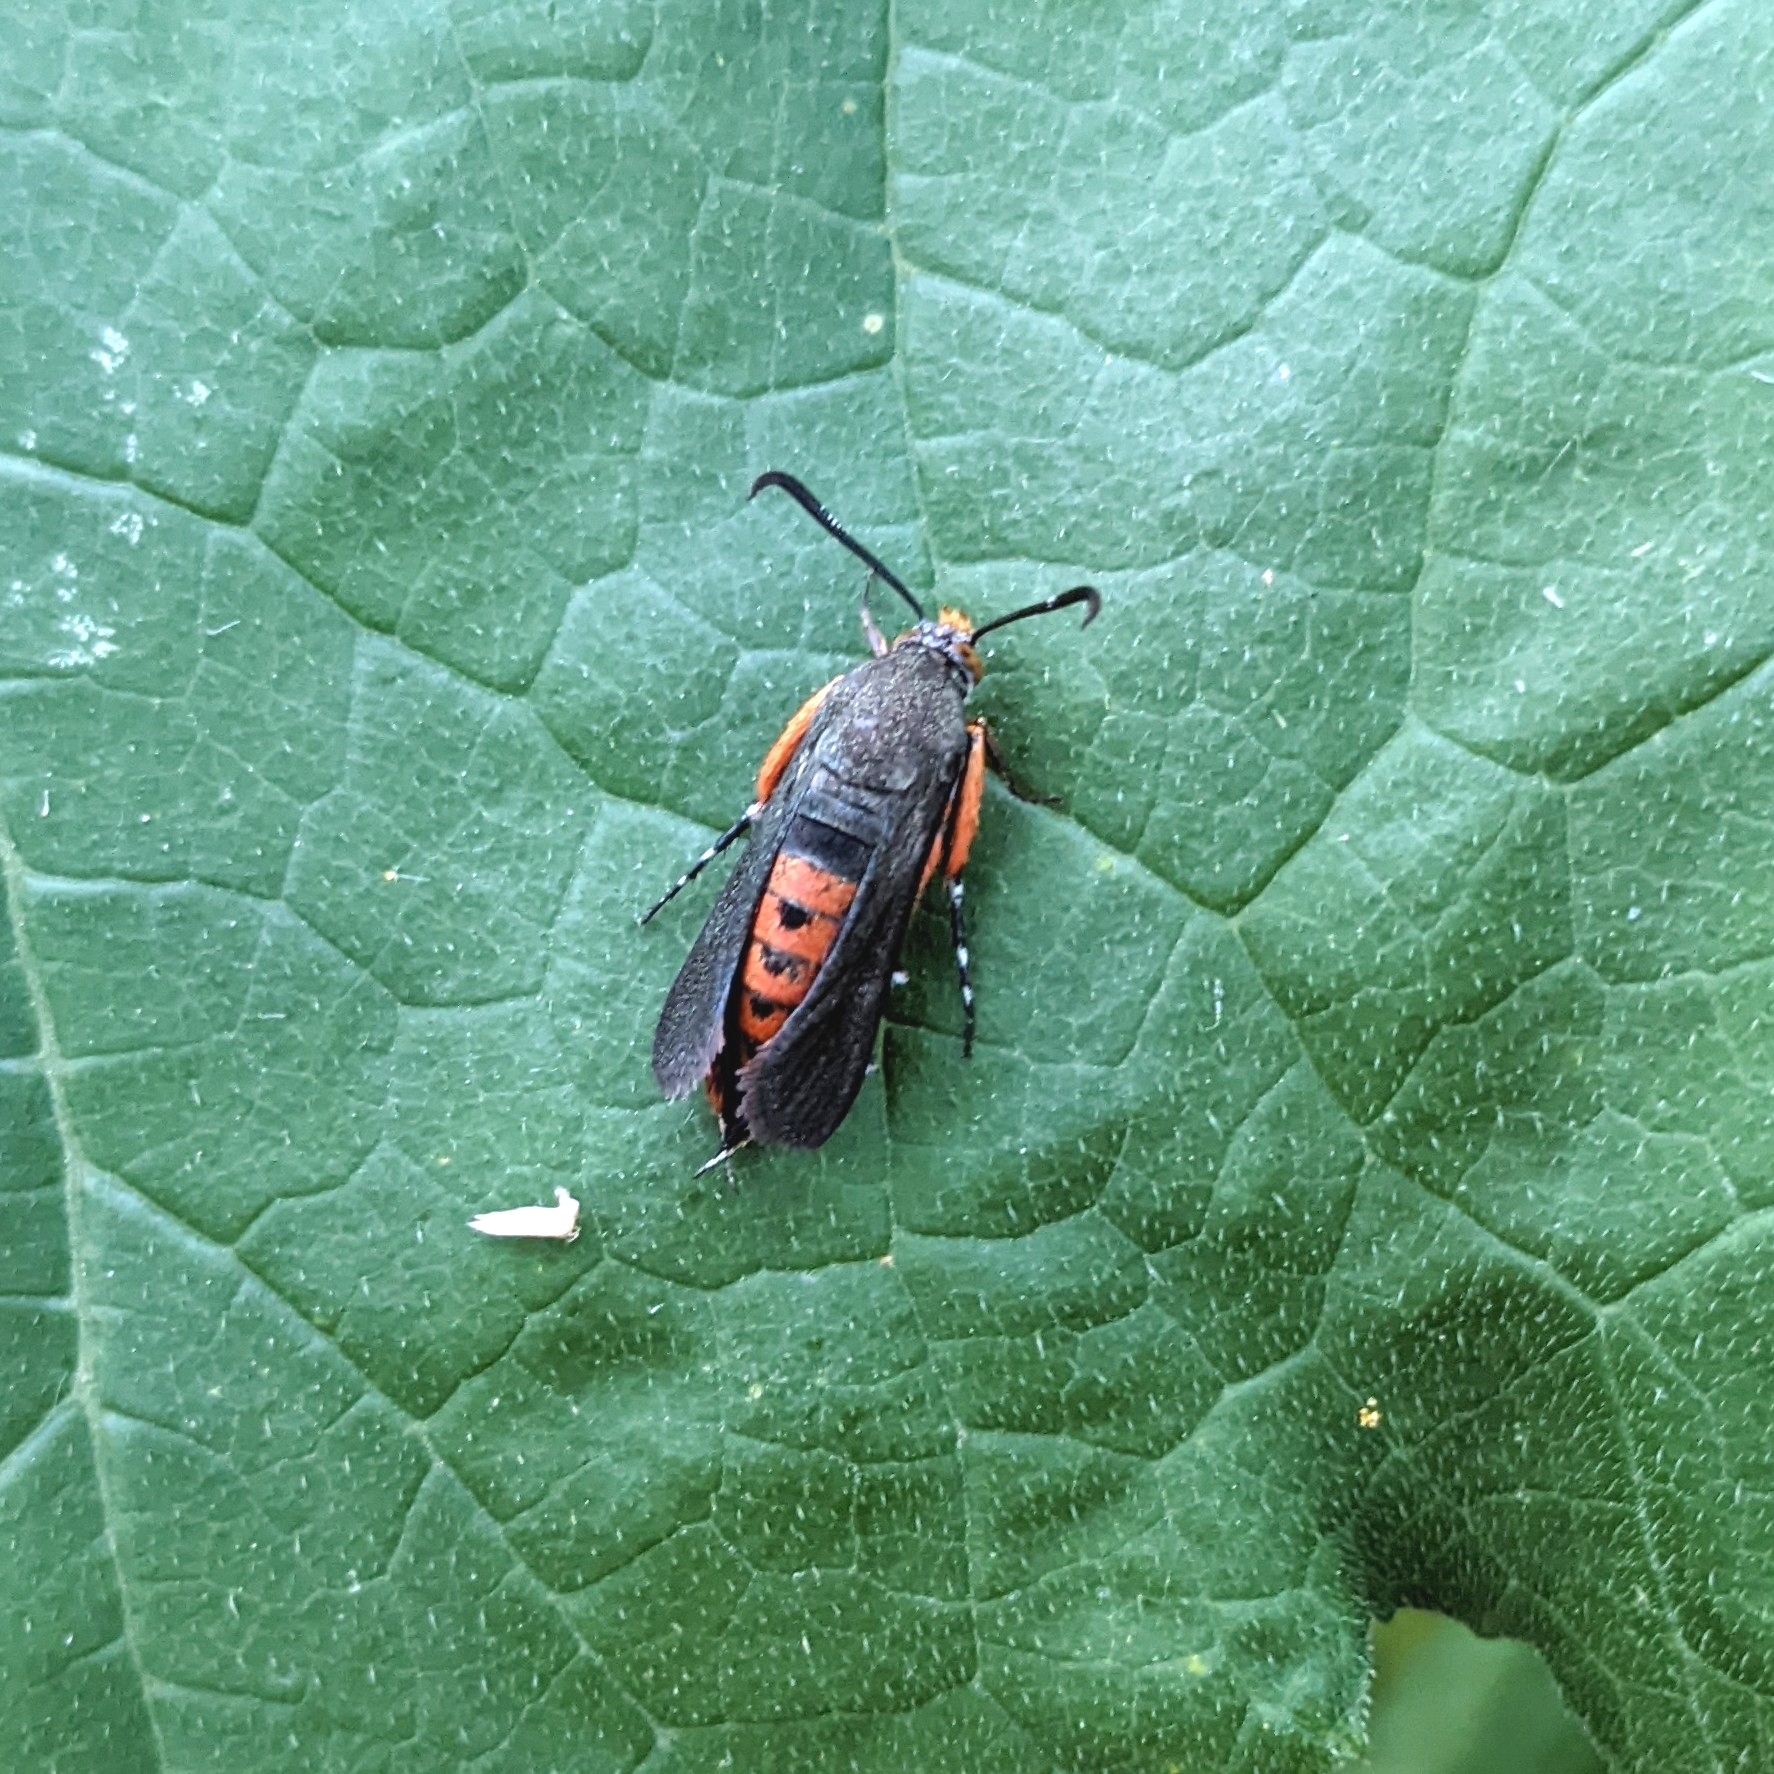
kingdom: Animalia
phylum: Arthropoda
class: Insecta
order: Lepidoptera
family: Sesiidae
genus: Eichlinia
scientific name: Eichlinia cucurbitae
